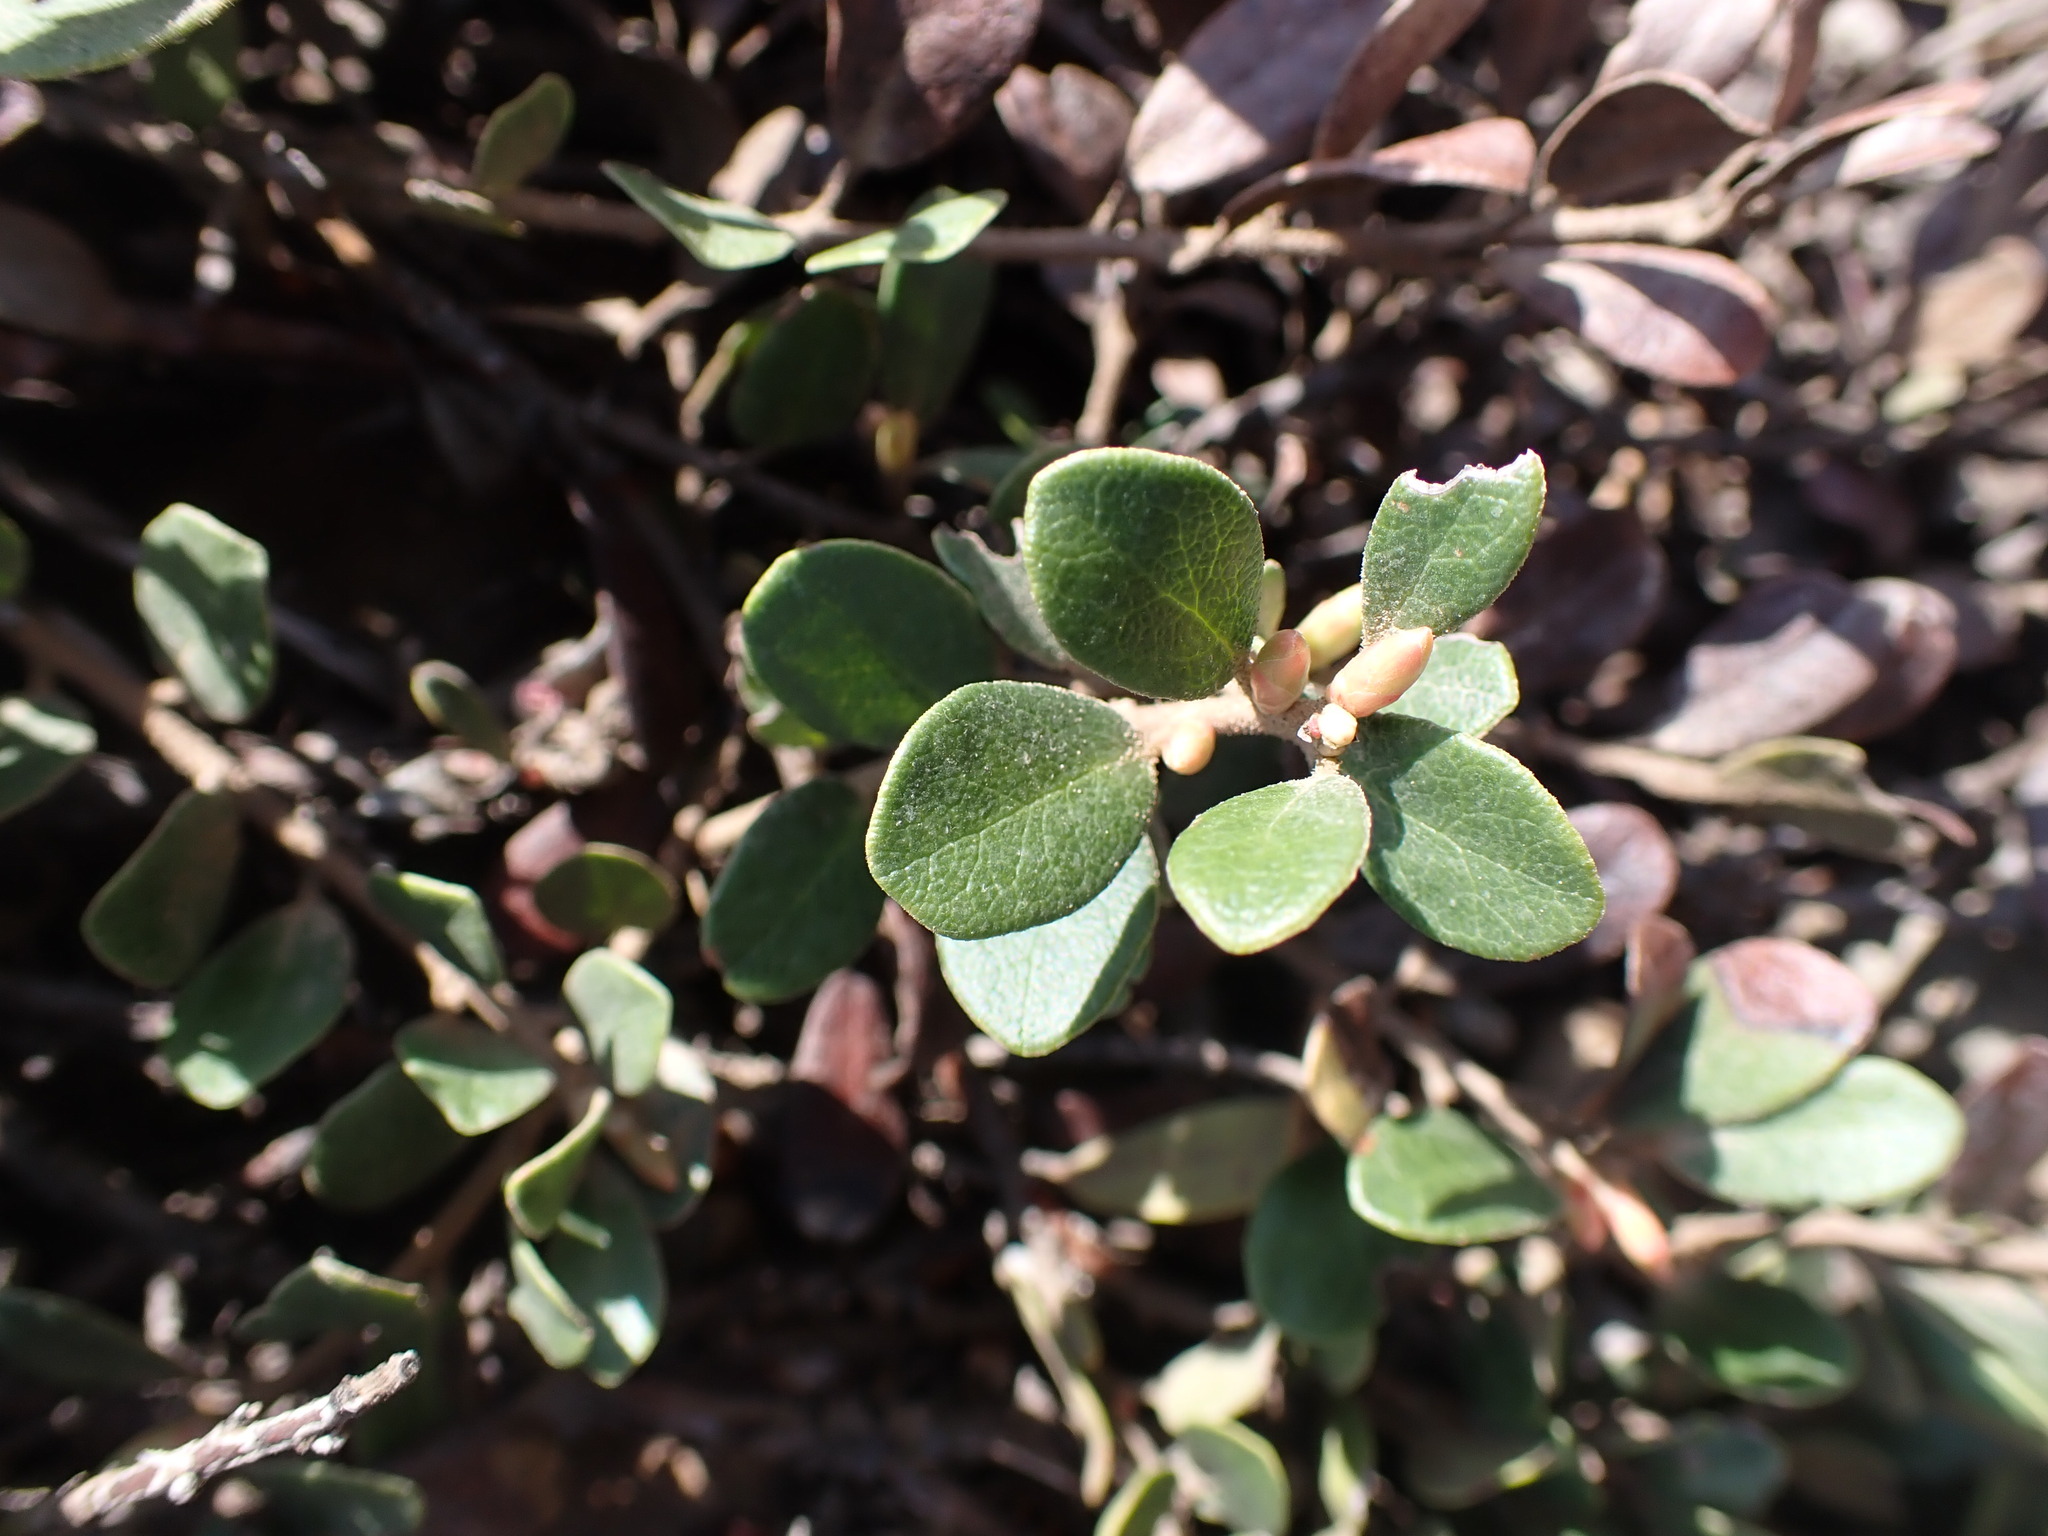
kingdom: Plantae
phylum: Tracheophyta
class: Magnoliopsida
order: Ericales
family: Ericaceae
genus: Arctostaphylos
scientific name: Arctostaphylos uva-ursi
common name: Bearberry
